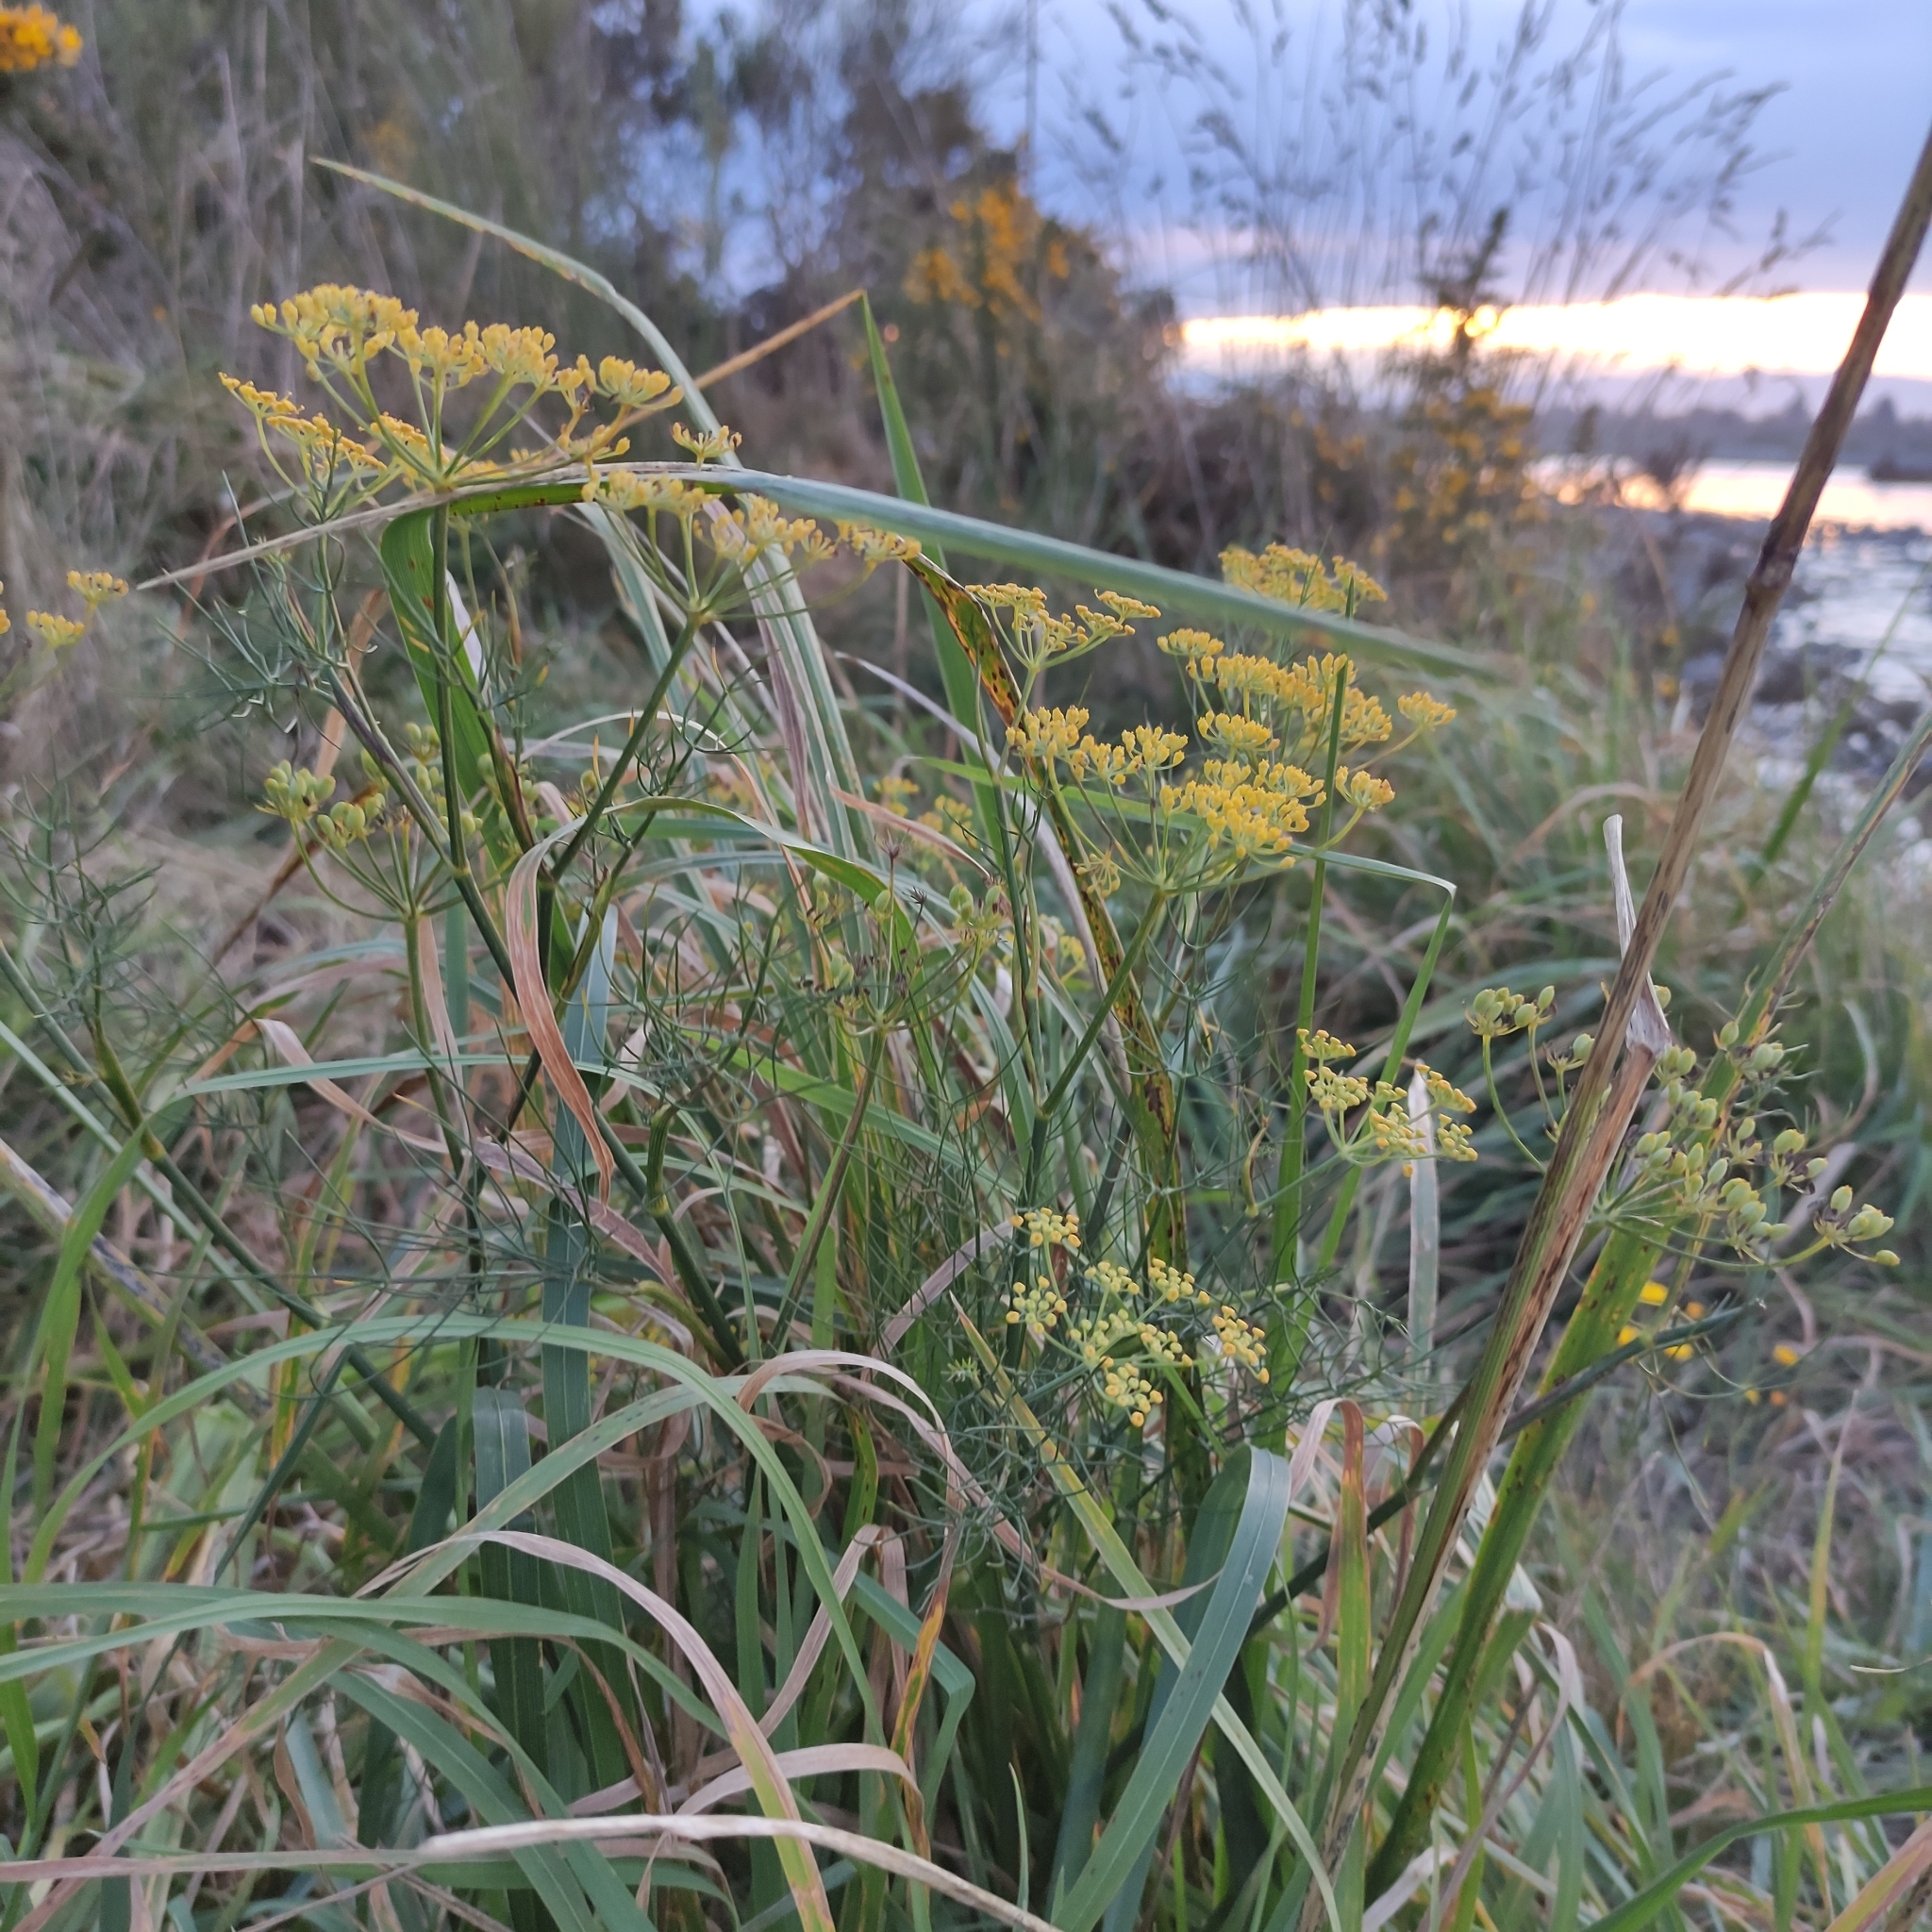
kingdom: Plantae
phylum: Tracheophyta
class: Magnoliopsida
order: Apiales
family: Apiaceae
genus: Foeniculum
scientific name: Foeniculum vulgare
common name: Fennel
